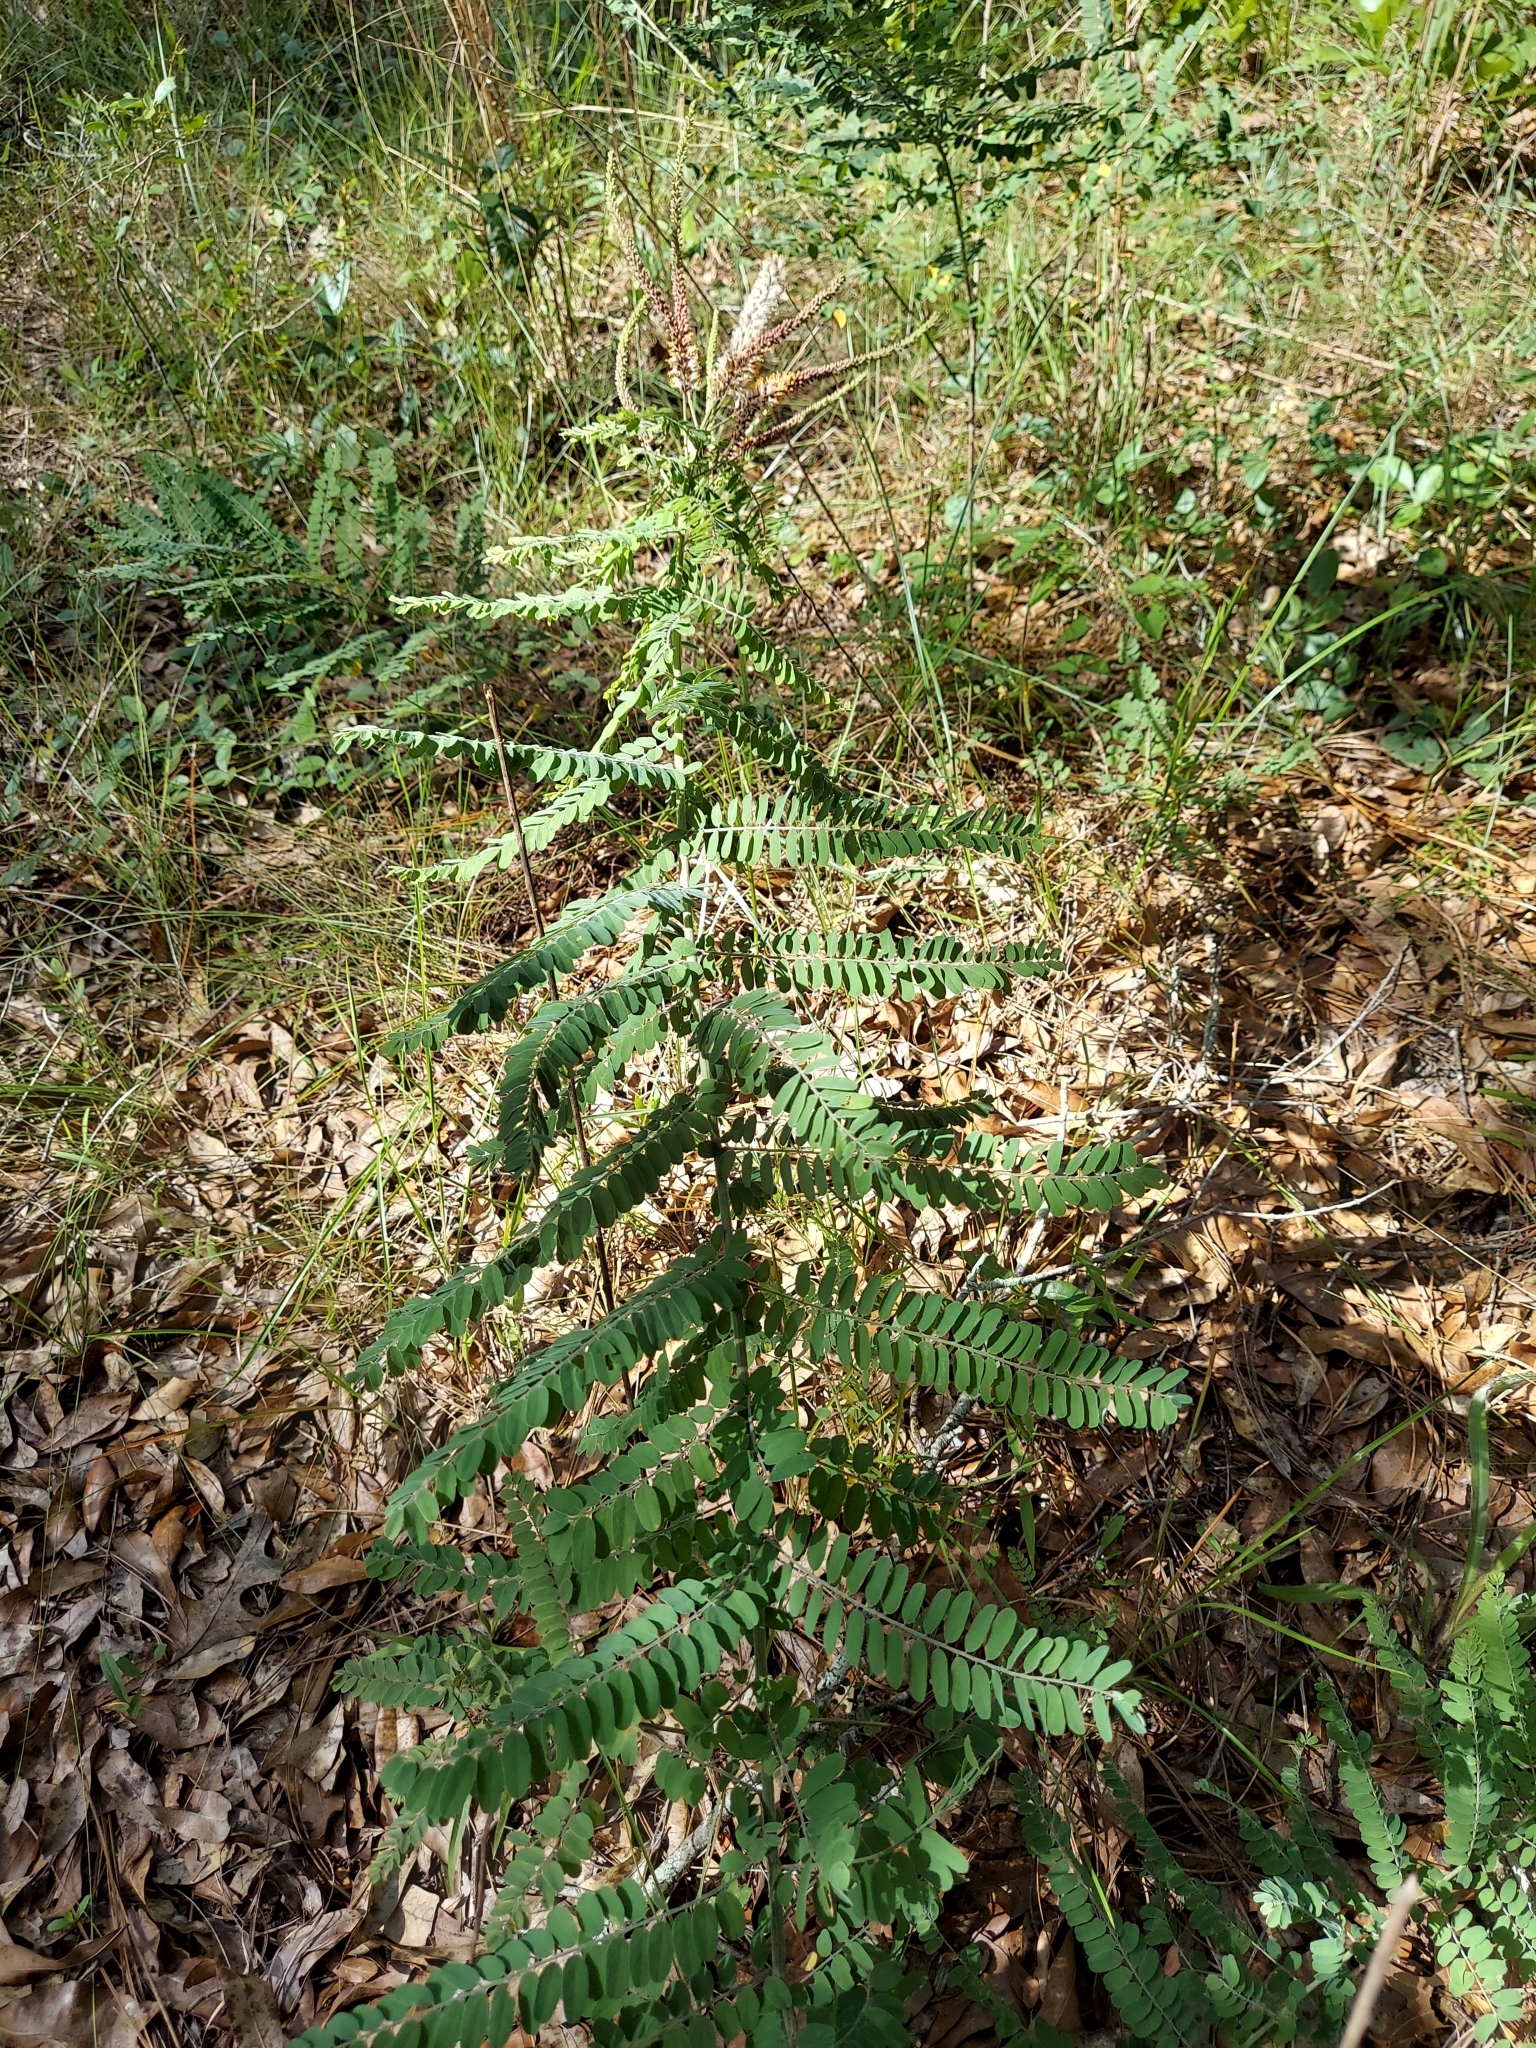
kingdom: Plantae
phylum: Tracheophyta
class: Magnoliopsida
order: Fabales
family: Fabaceae
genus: Amorpha
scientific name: Amorpha herbacea
